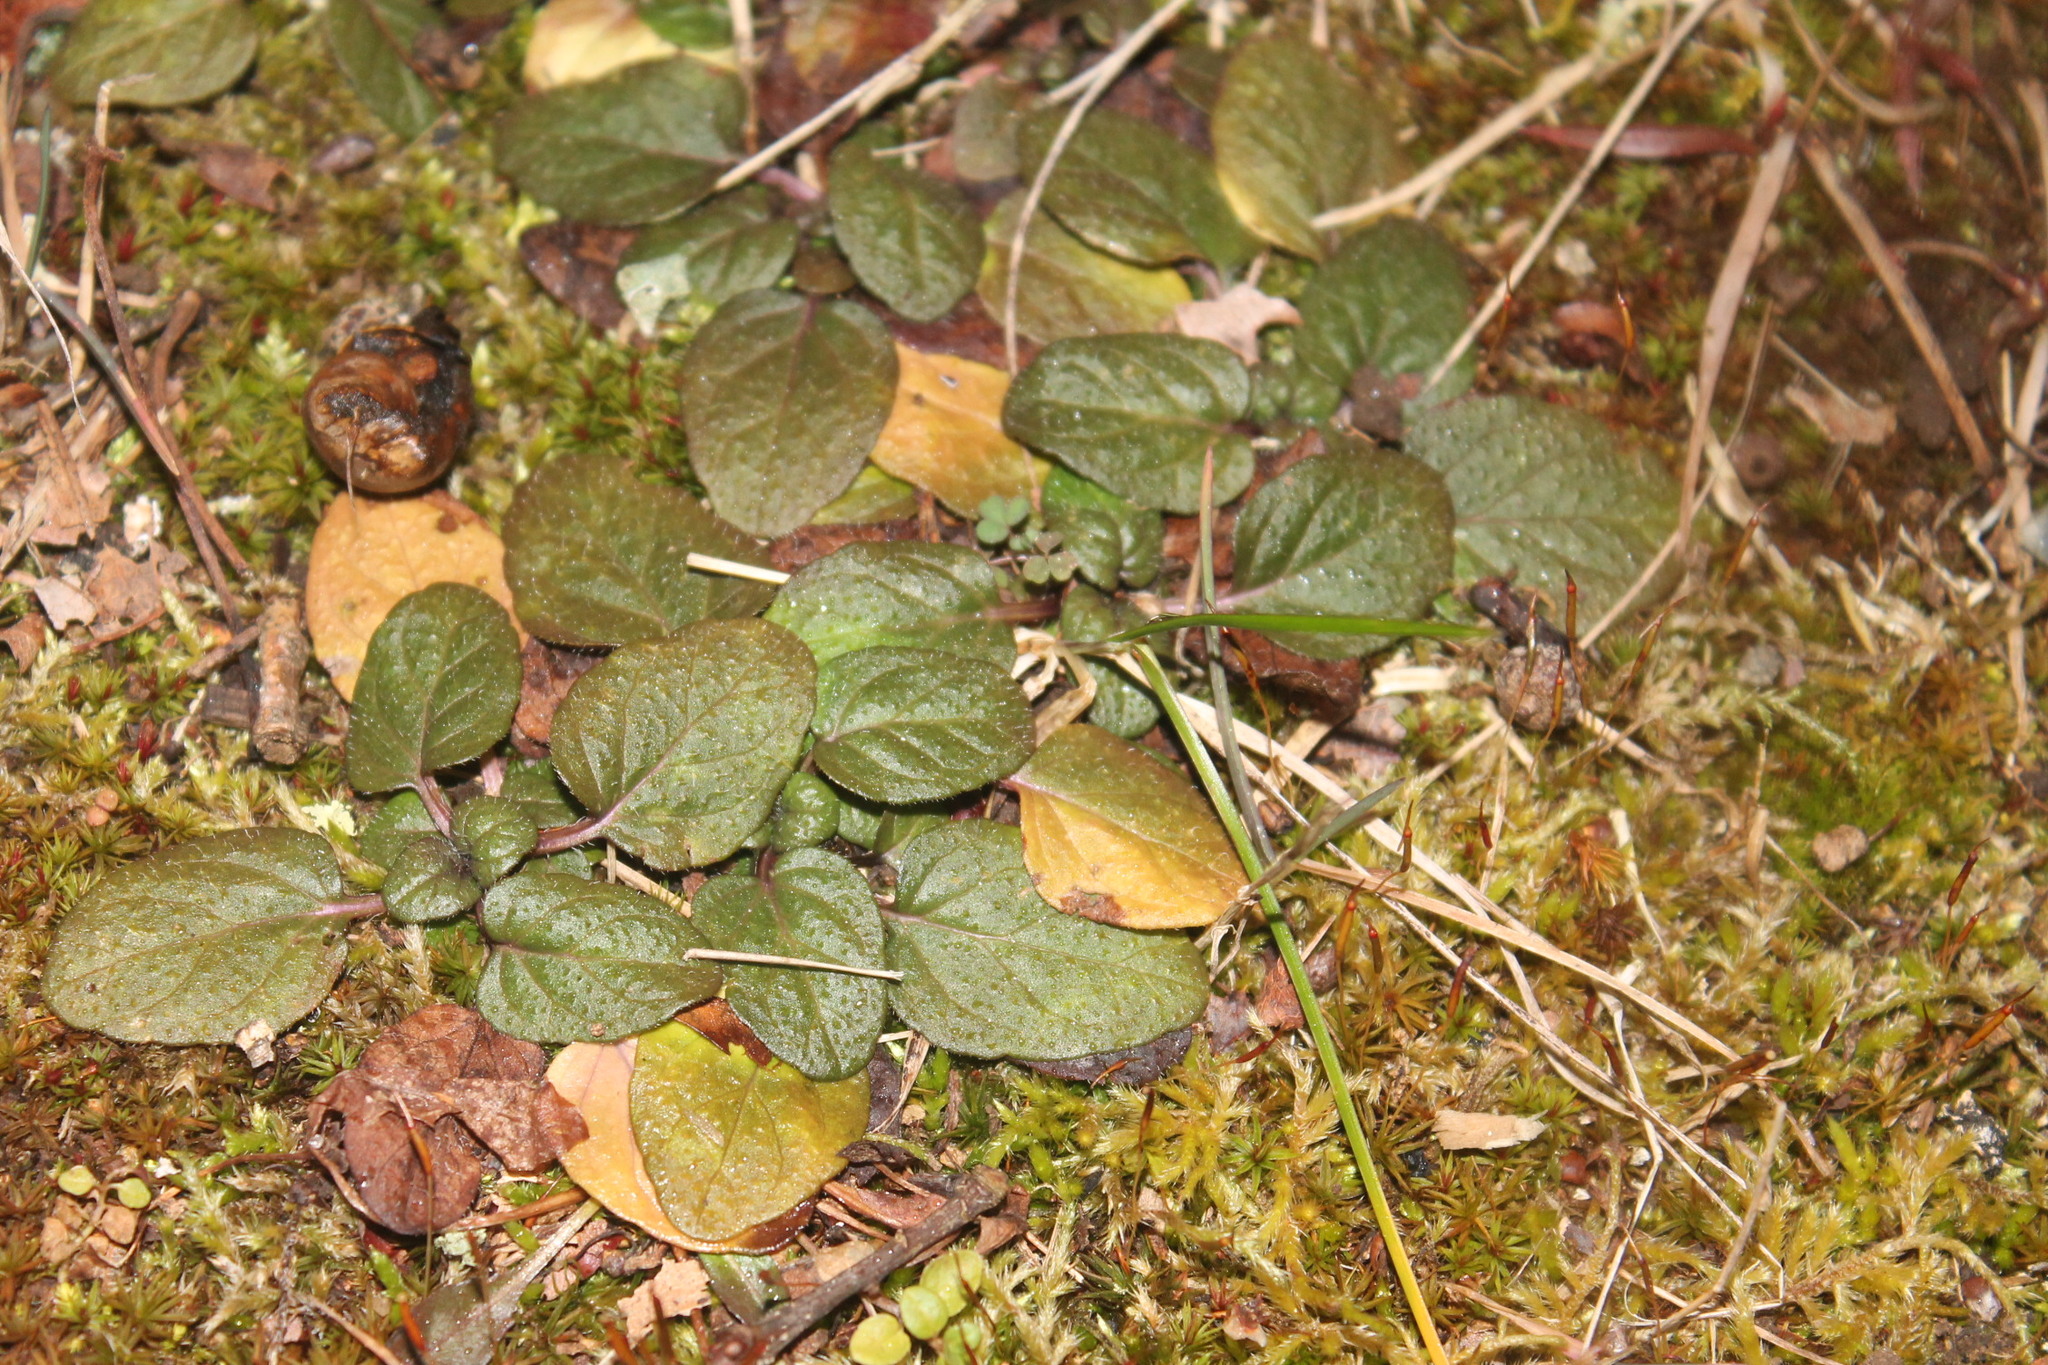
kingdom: Plantae
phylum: Tracheophyta
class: Magnoliopsida
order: Lamiales
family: Lamiaceae
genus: Ajuga
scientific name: Ajuga reptans
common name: Bugle
